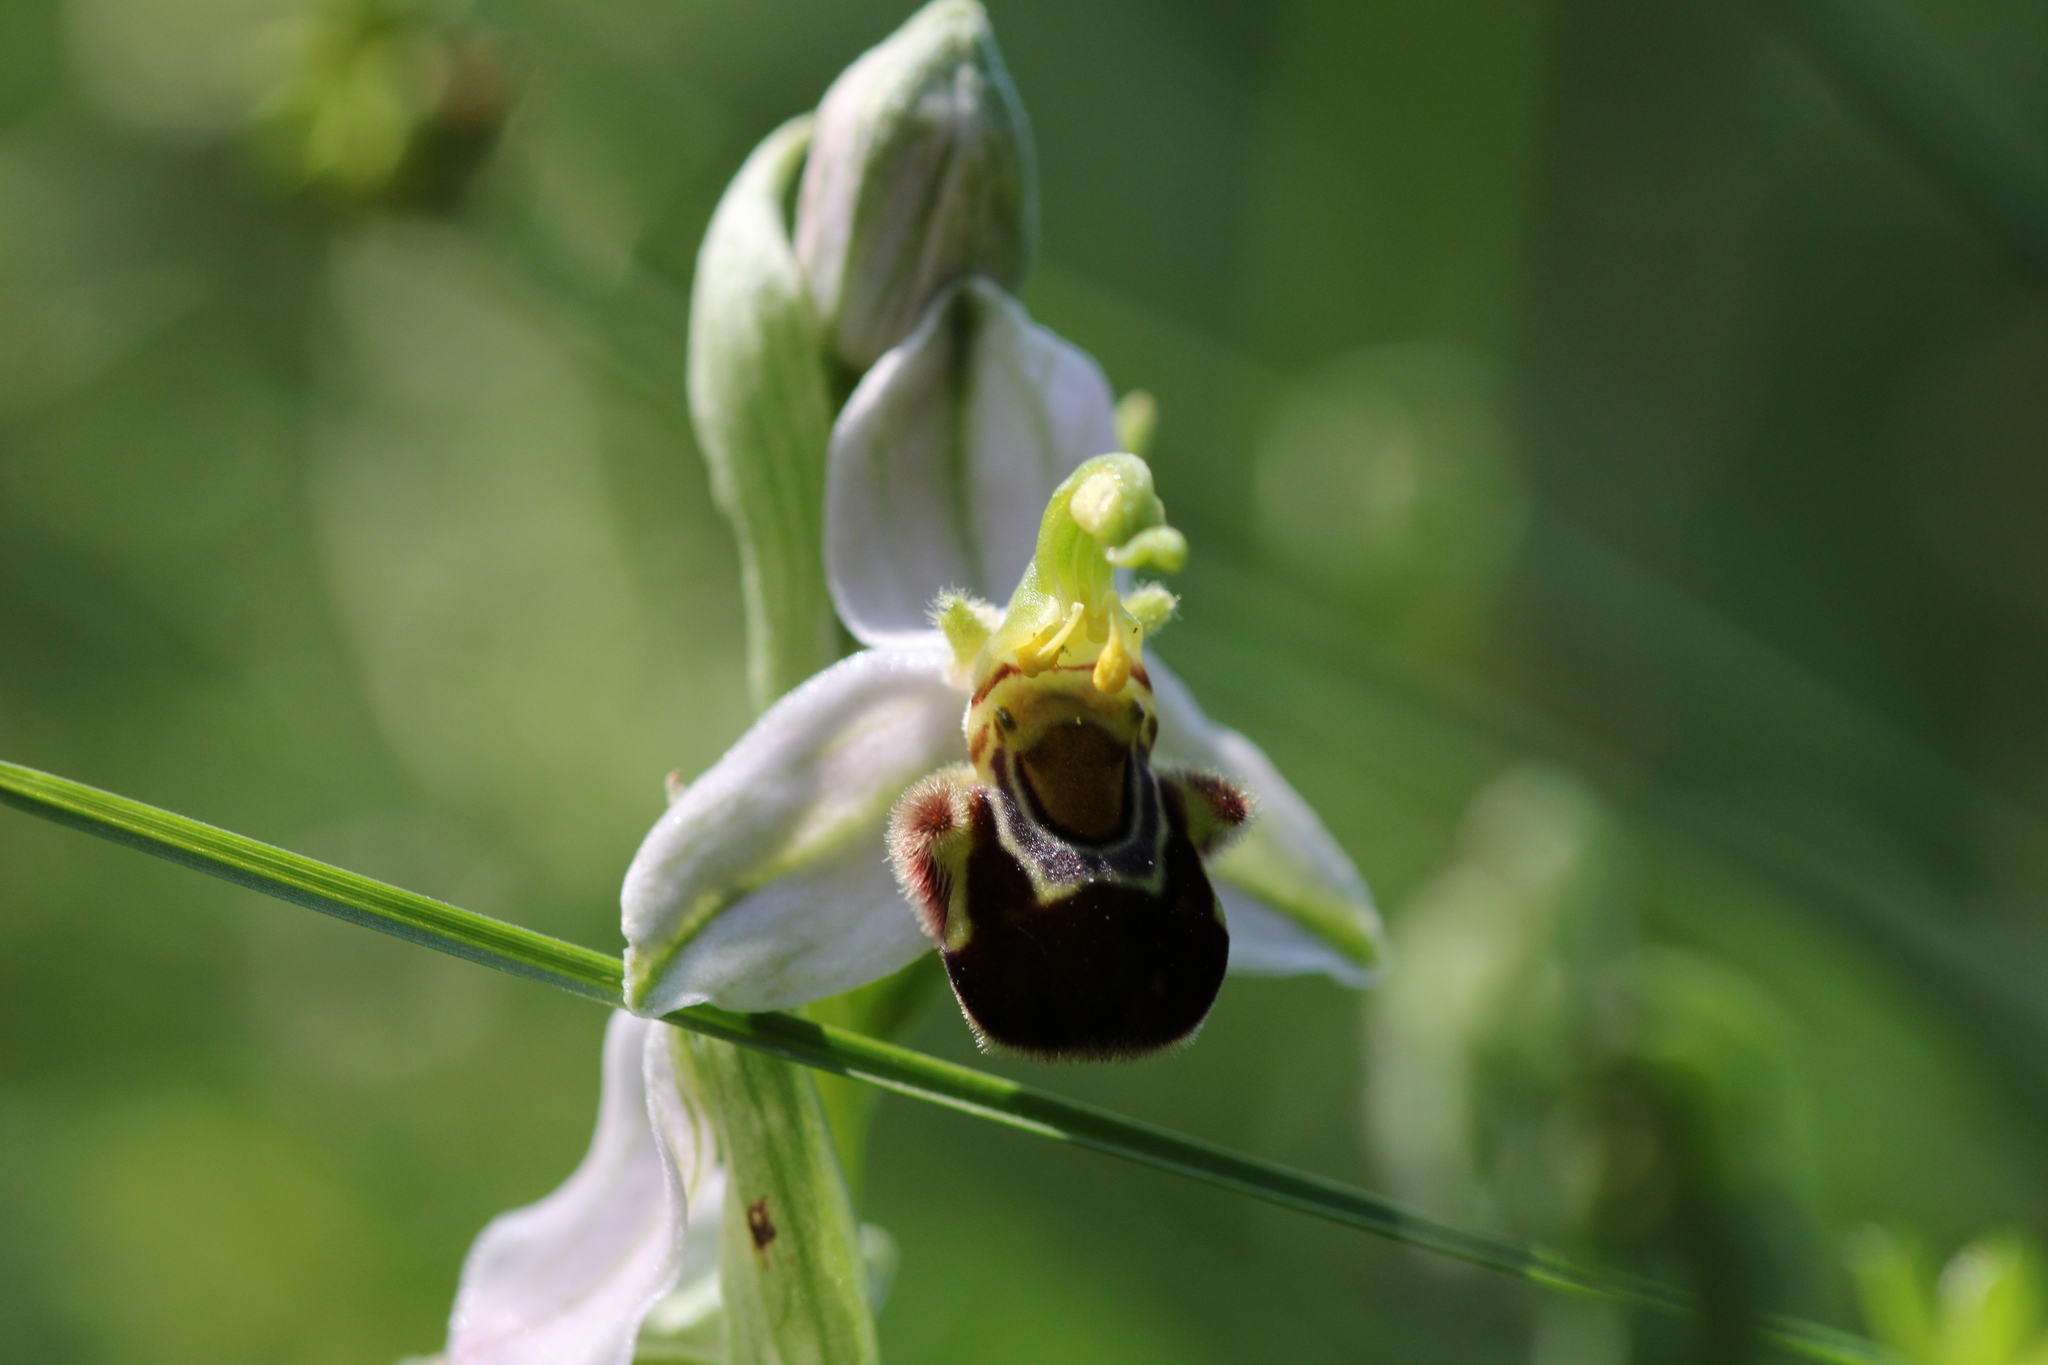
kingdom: Plantae
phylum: Tracheophyta
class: Liliopsida
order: Asparagales
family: Orchidaceae
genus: Ophrys
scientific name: Ophrys apifera
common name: Bee orchid
